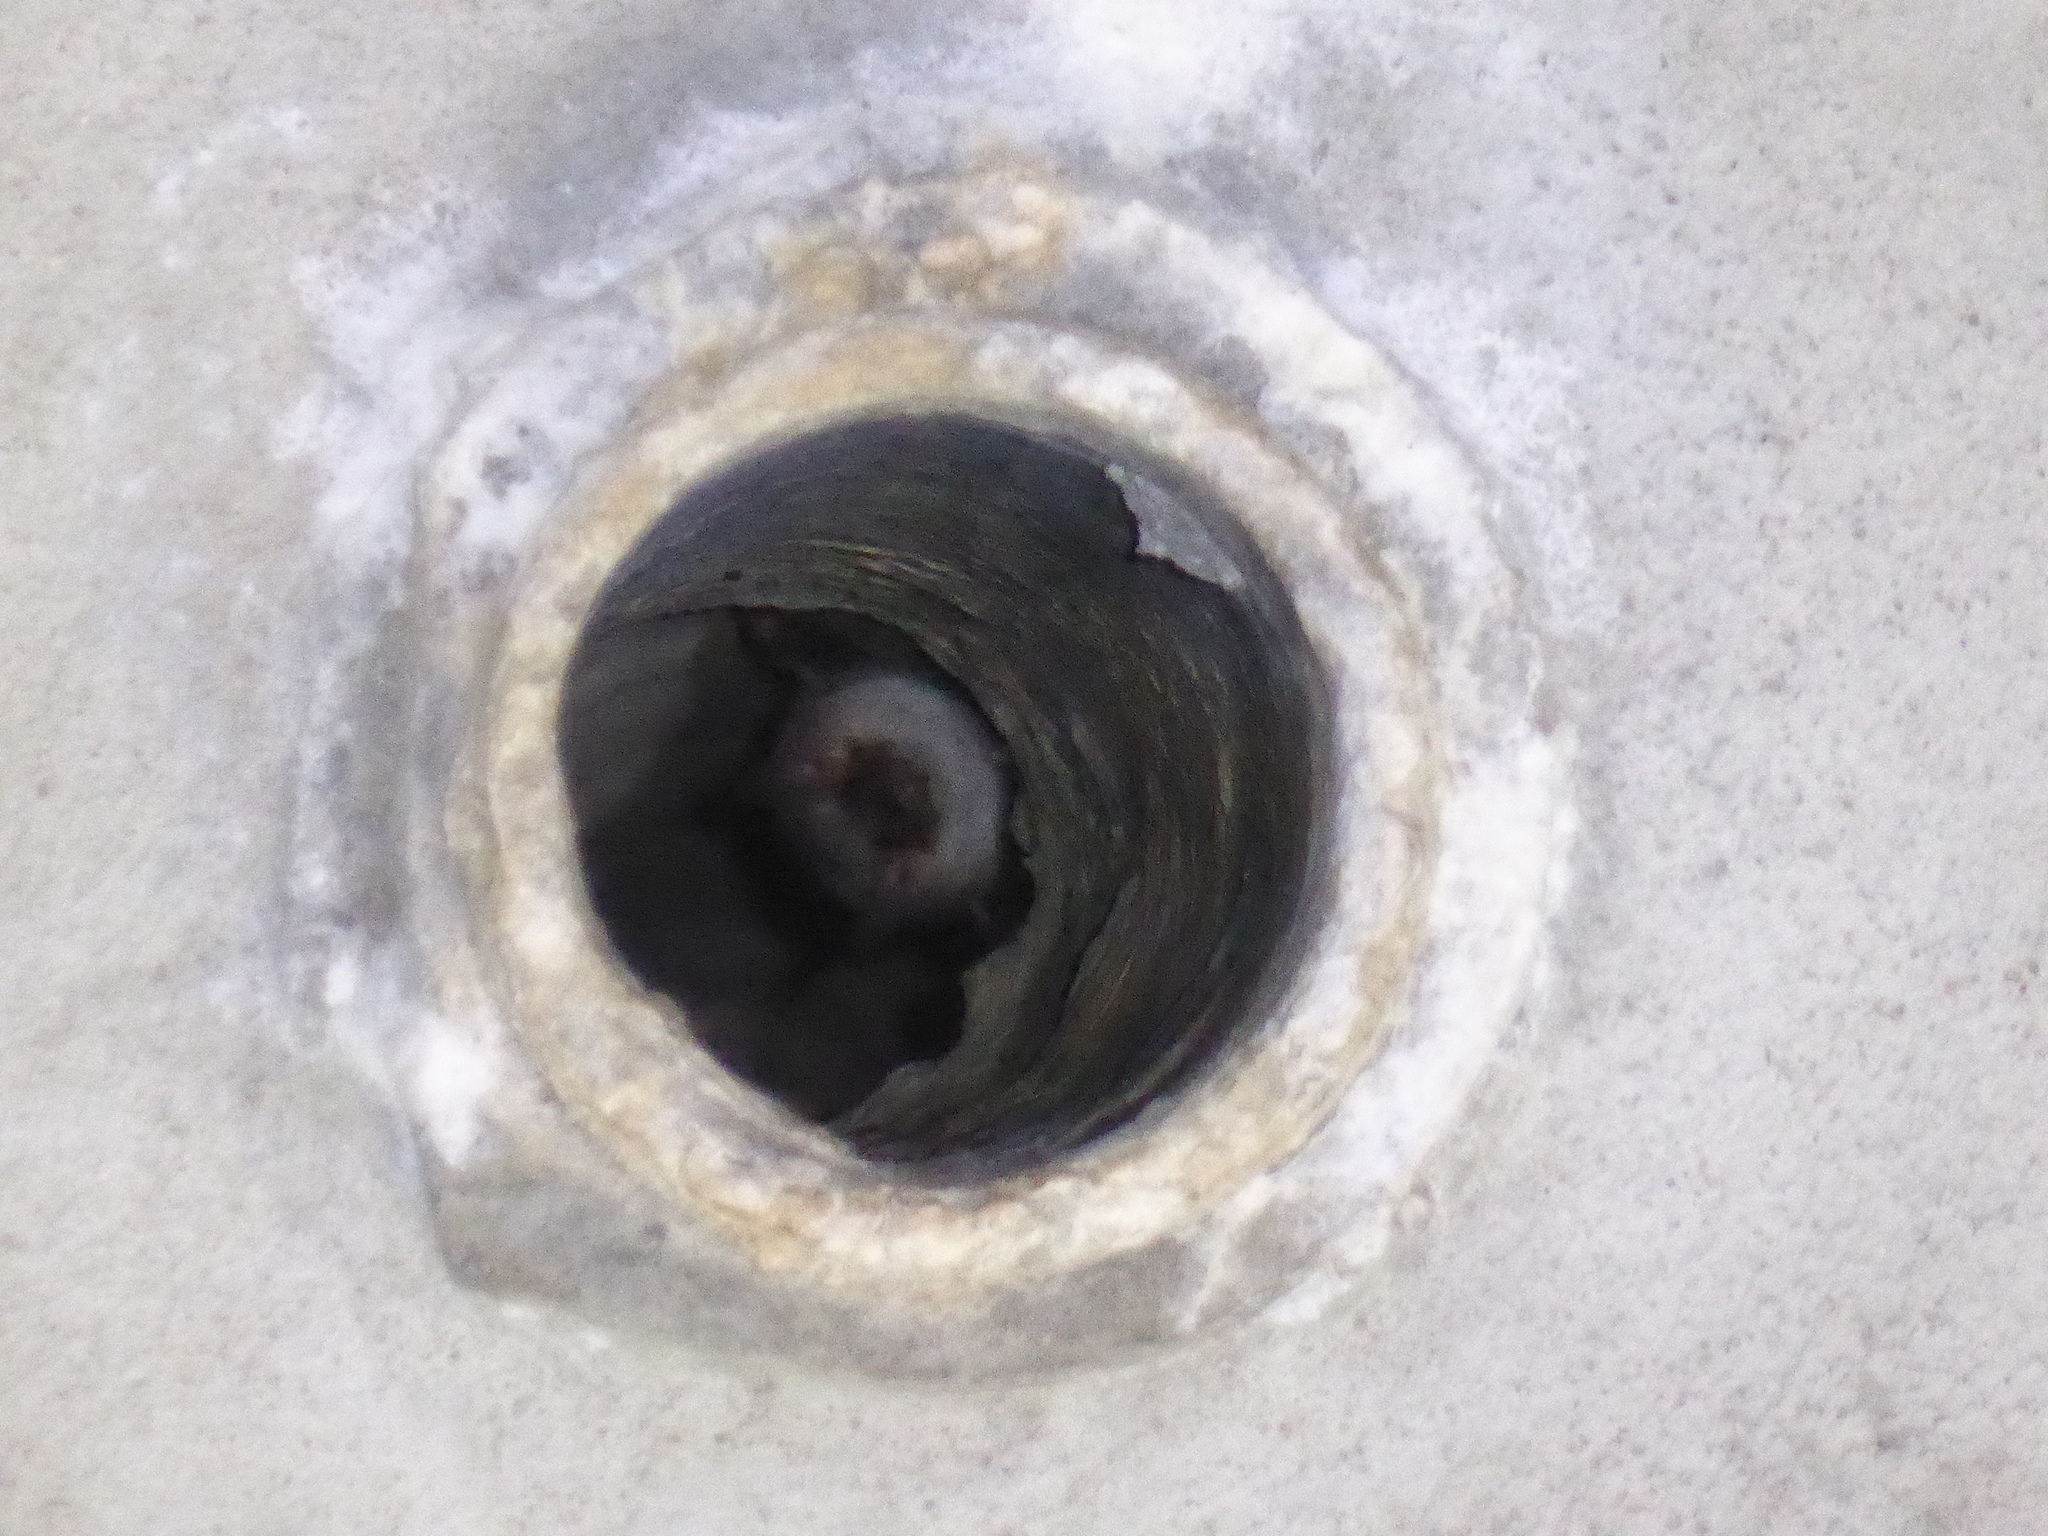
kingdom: Animalia
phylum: Chordata
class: Mammalia
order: Chiroptera
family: Vespertilionidae
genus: Myotis
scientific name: Myotis myotis
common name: Greater mouse-eared bat
